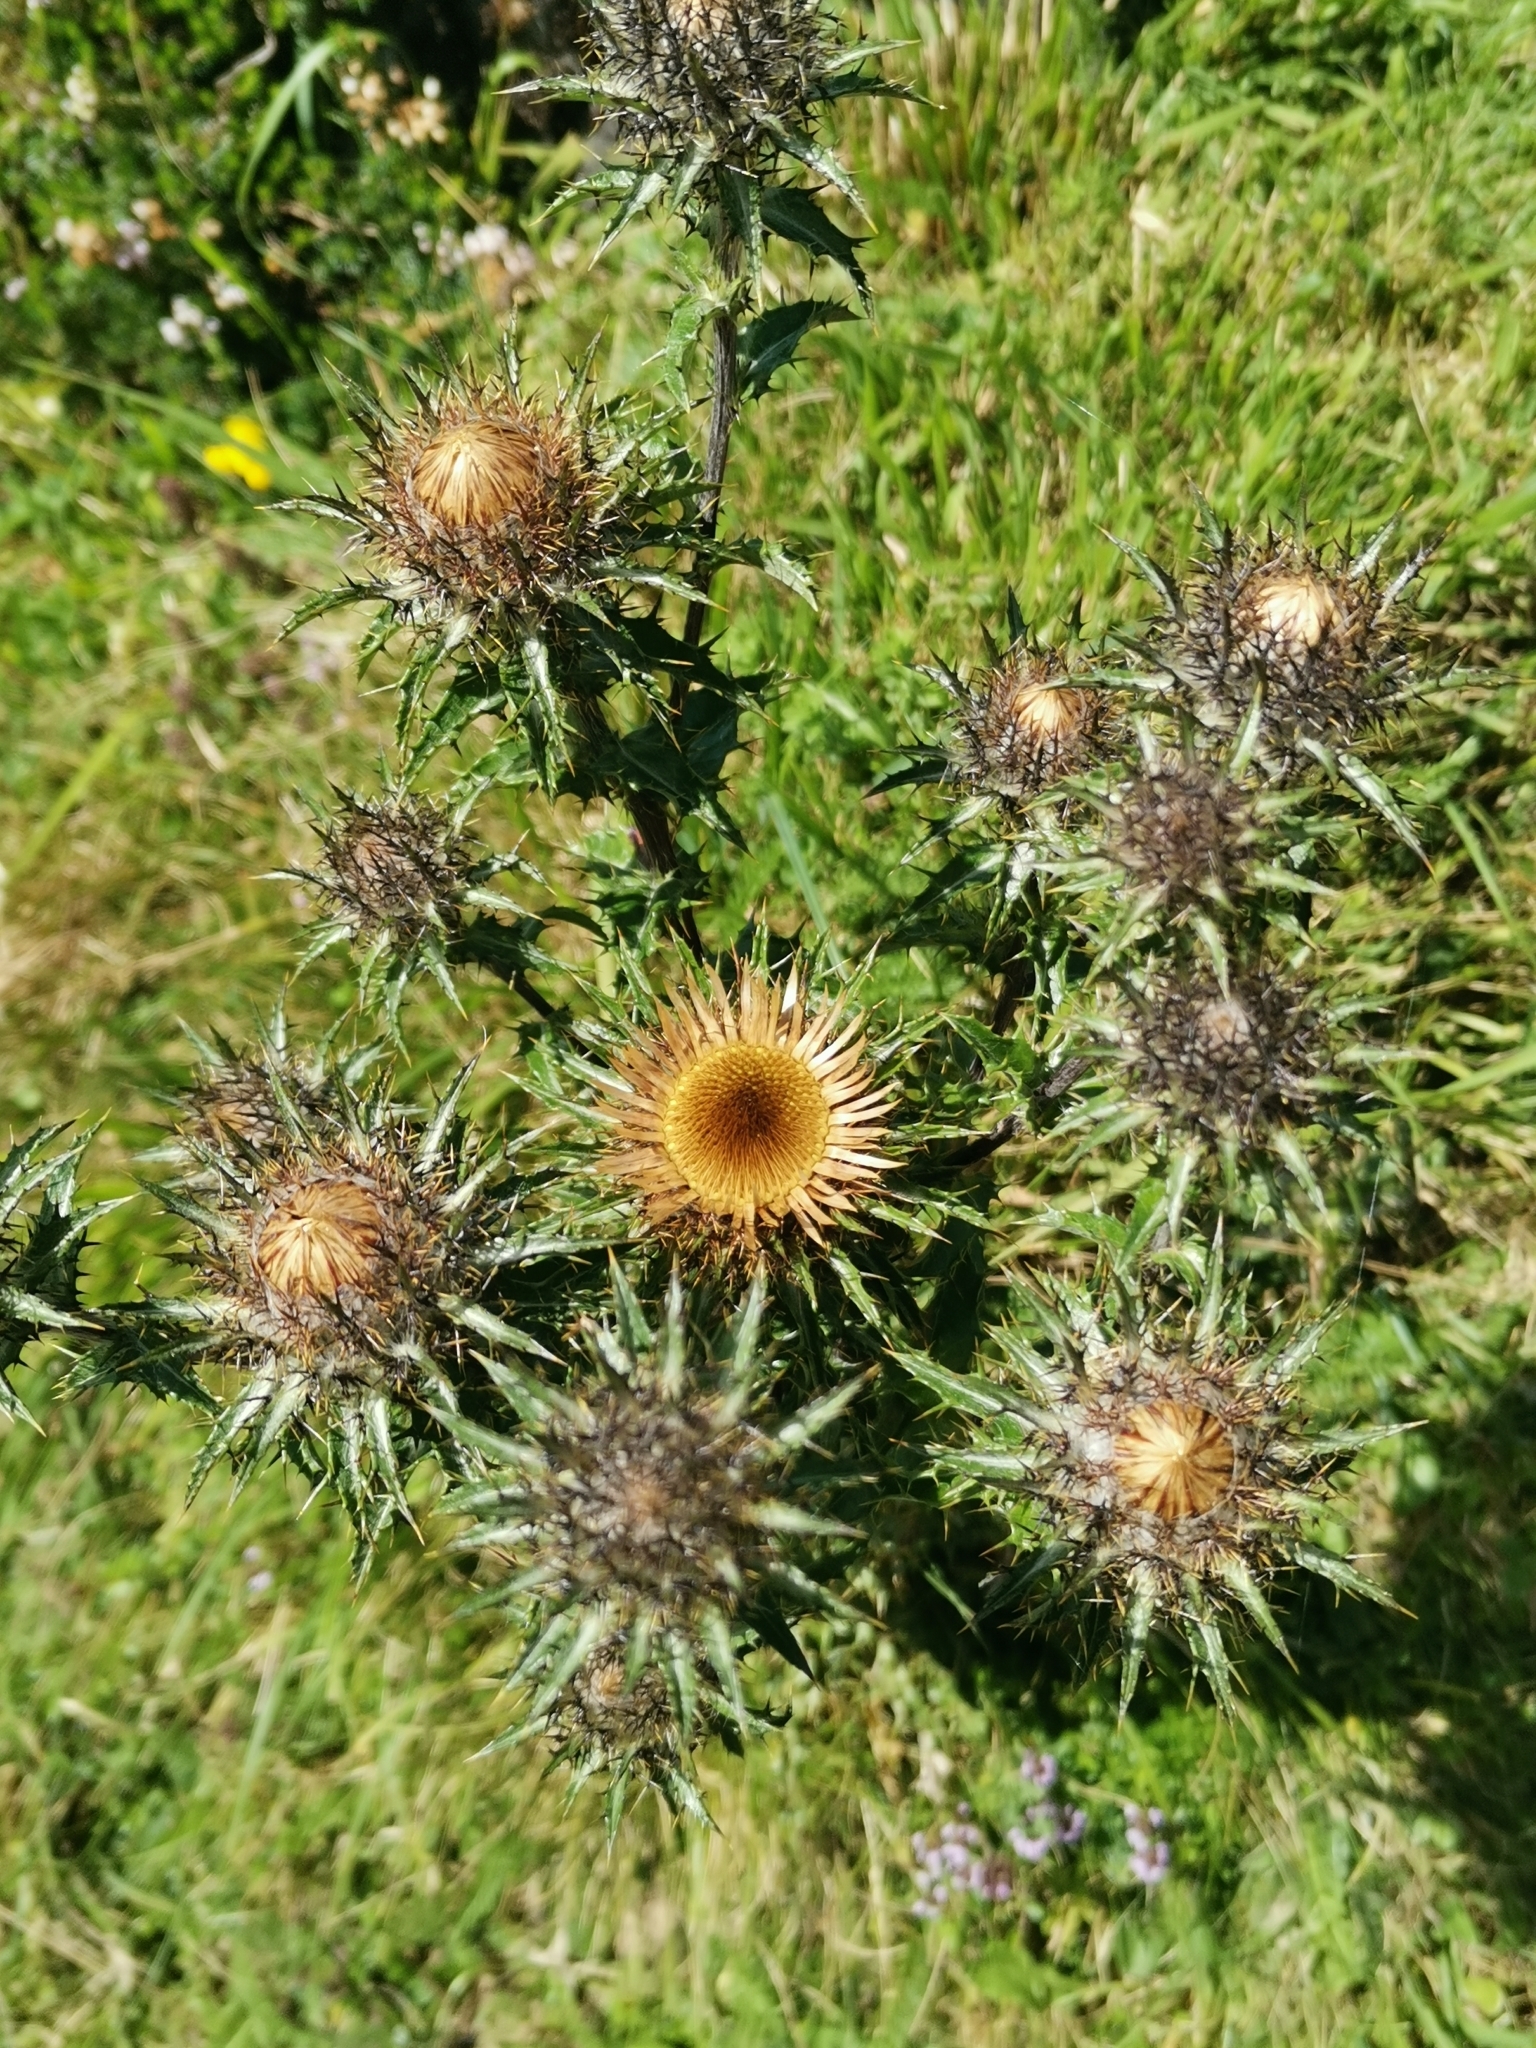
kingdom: Plantae
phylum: Tracheophyta
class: Magnoliopsida
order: Asterales
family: Asteraceae
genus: Carlina
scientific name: Carlina vulgaris
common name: Carline thistle
